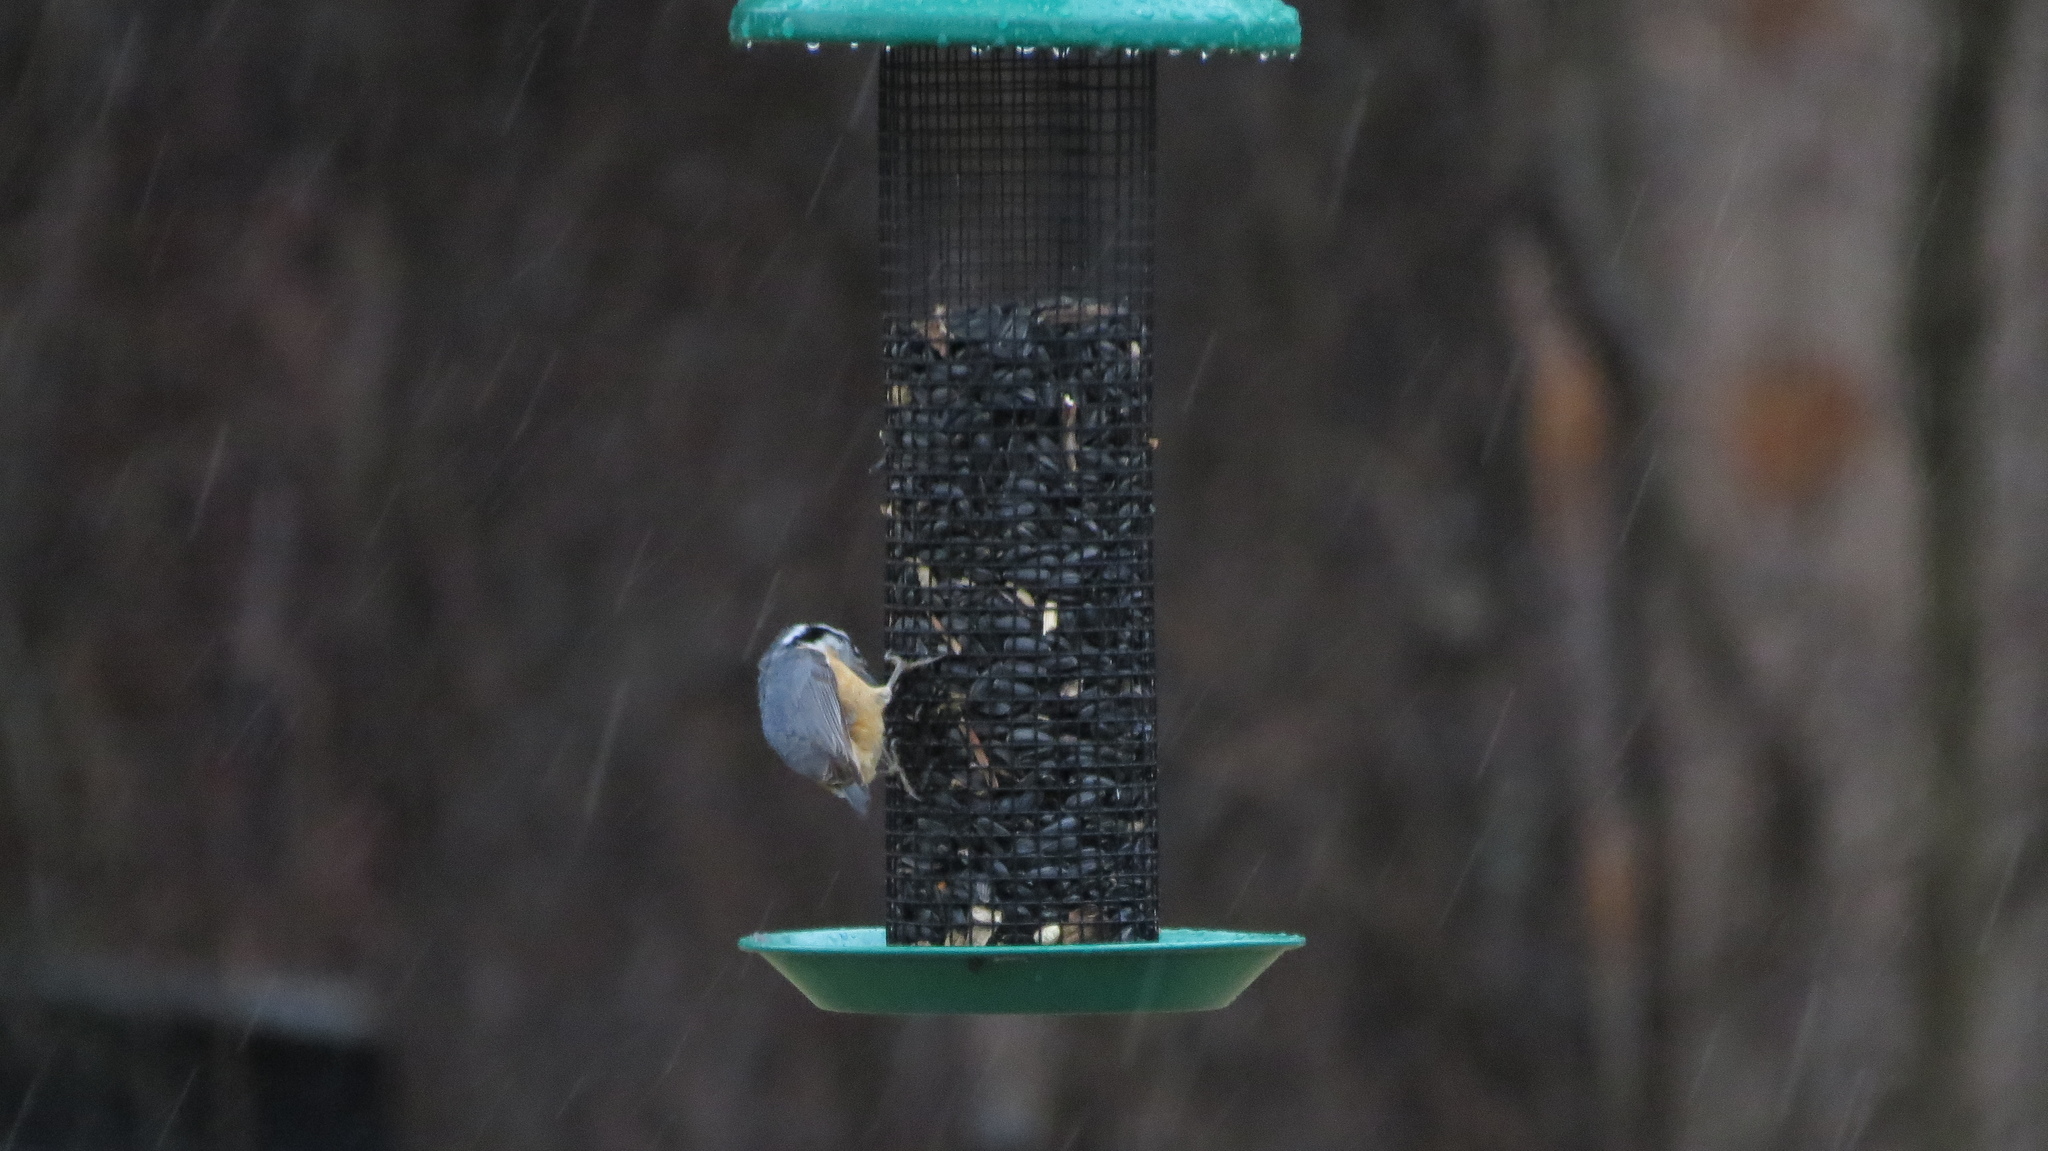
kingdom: Animalia
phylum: Chordata
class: Aves
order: Passeriformes
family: Sittidae
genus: Sitta
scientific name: Sitta canadensis
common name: Red-breasted nuthatch
